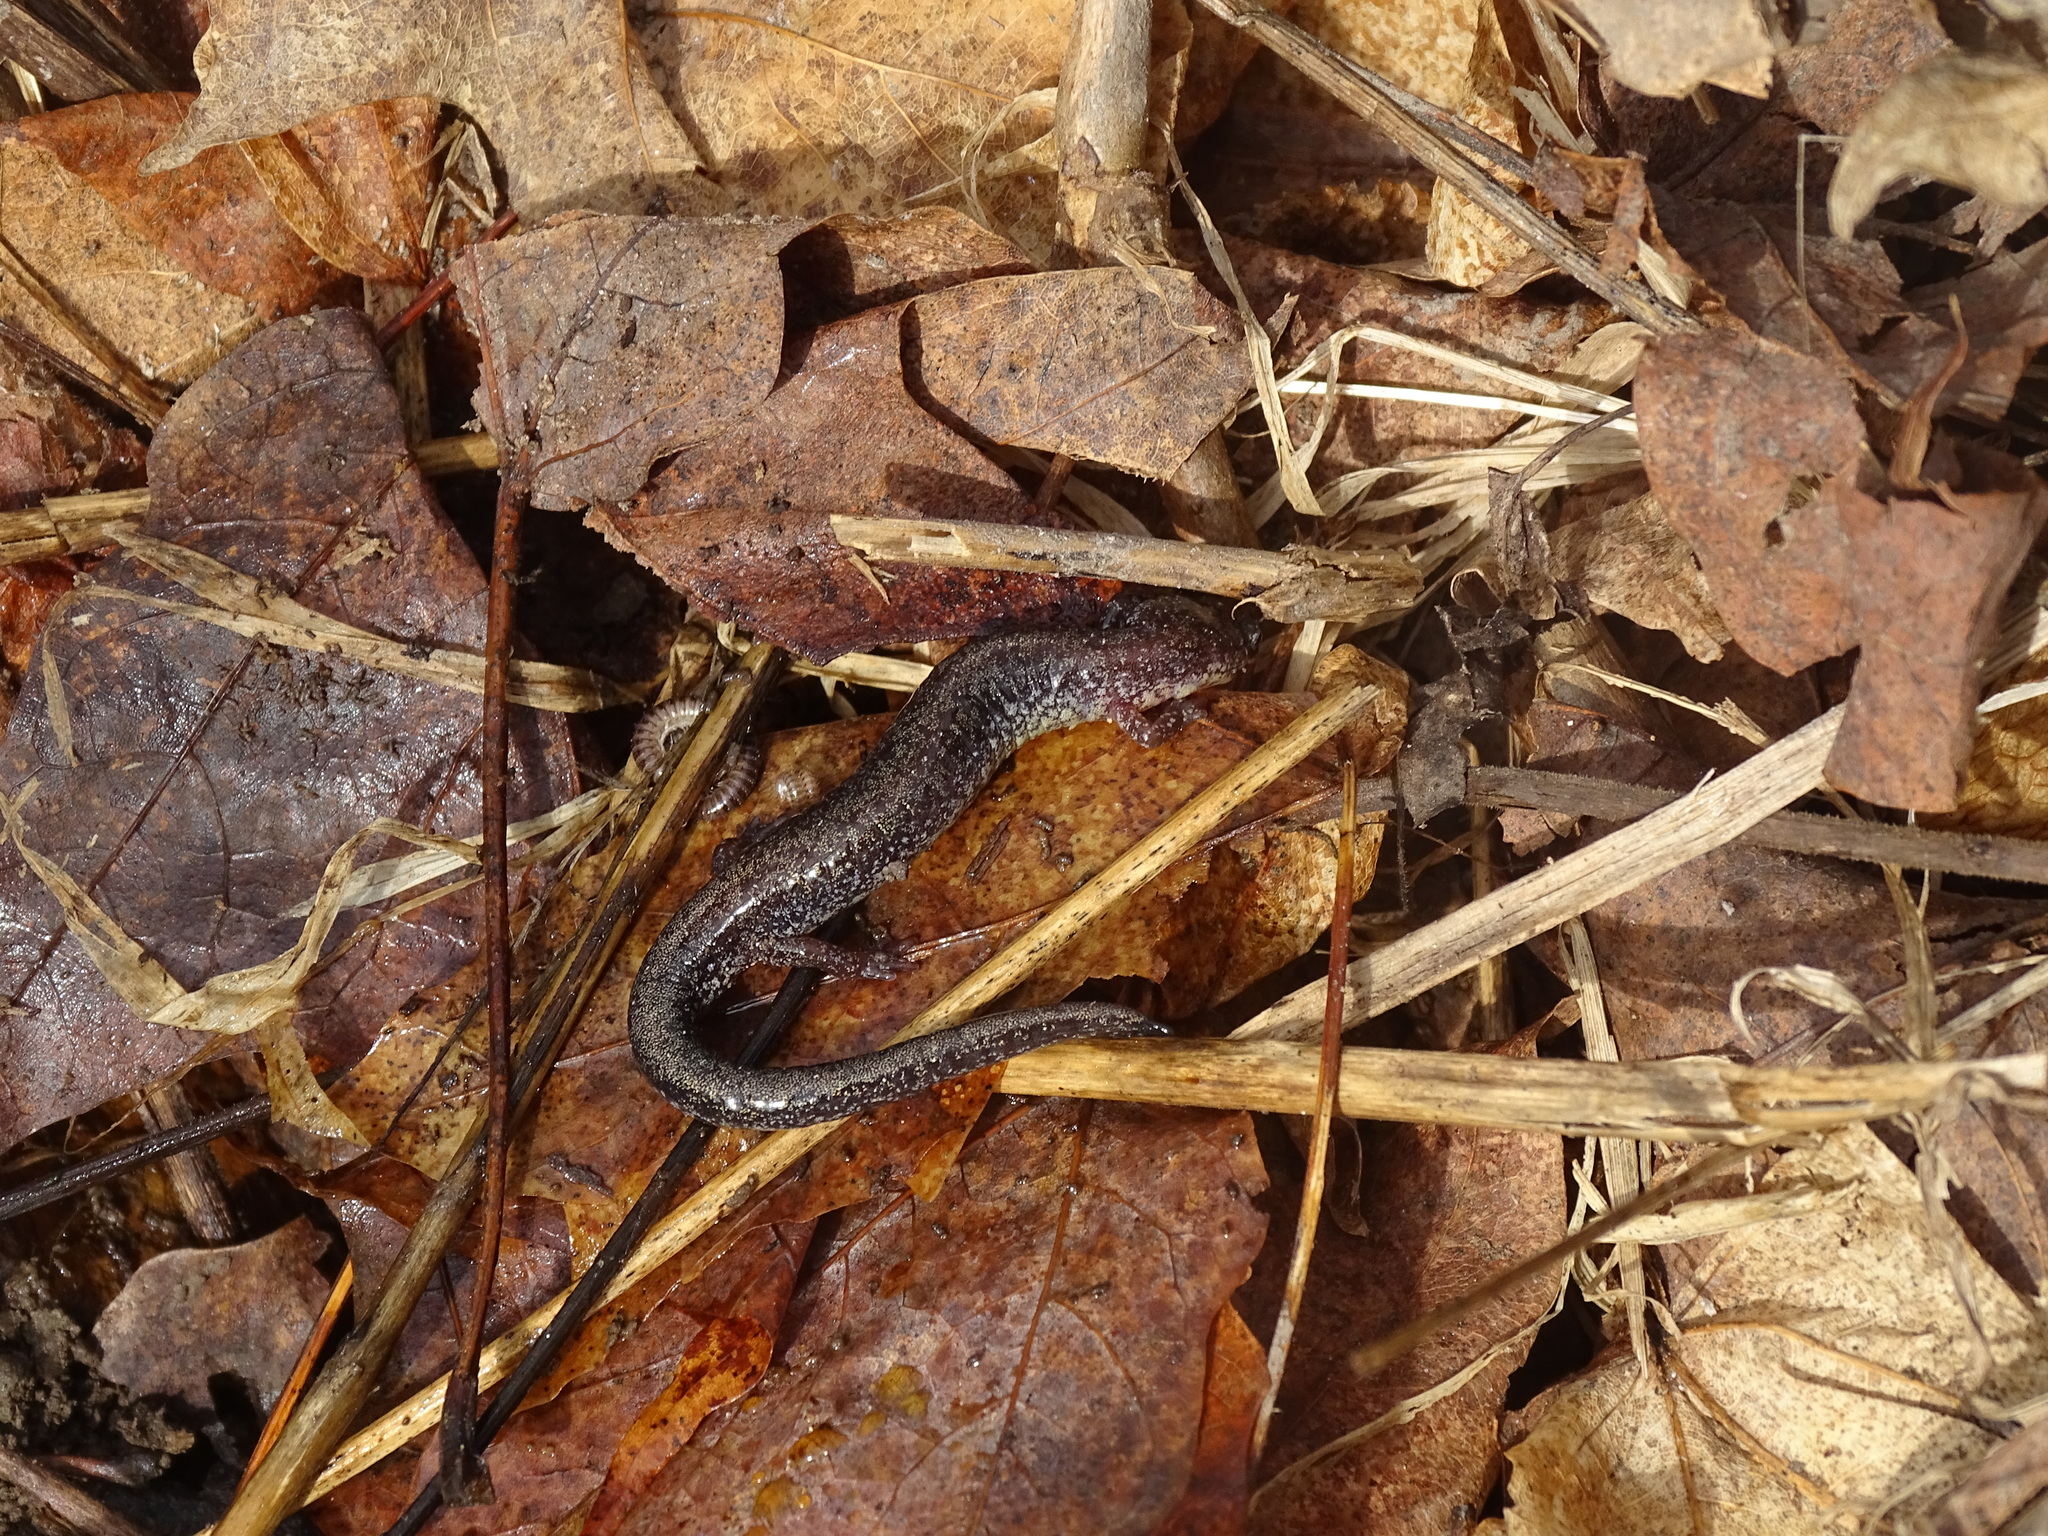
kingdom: Animalia
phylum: Chordata
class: Amphibia
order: Caudata
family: Plethodontidae
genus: Plethodon
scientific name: Plethodon cinereus
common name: Redback salamander
